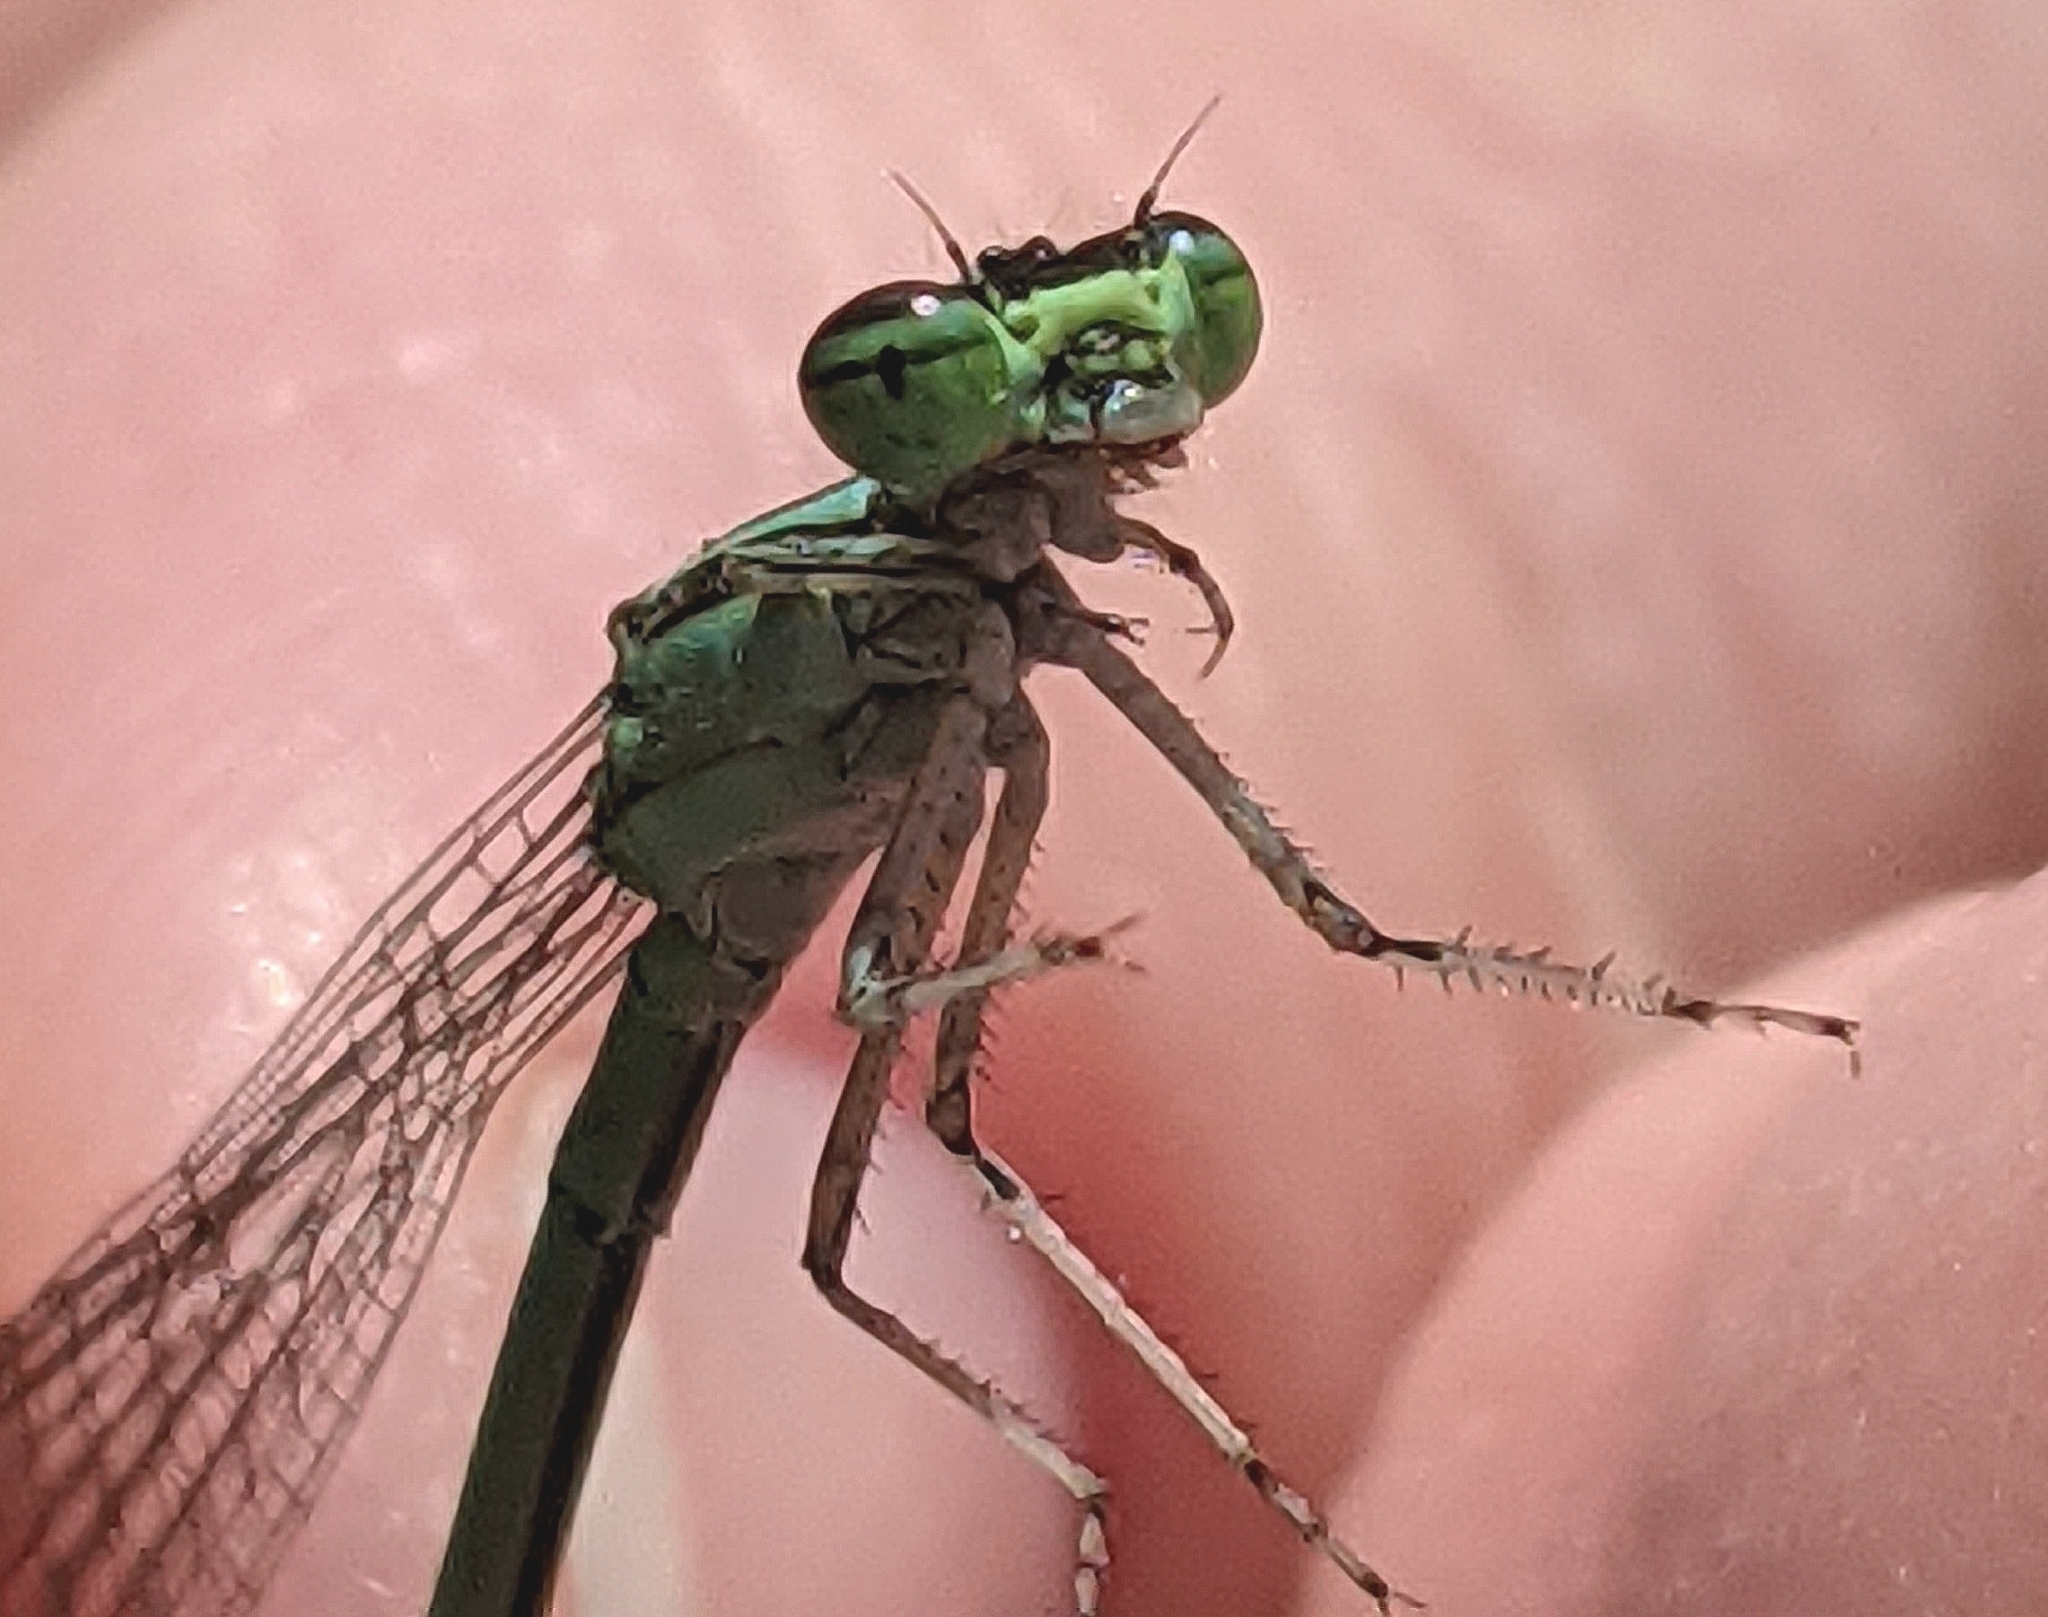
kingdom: Animalia
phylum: Arthropoda
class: Insecta
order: Odonata
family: Coenagrionidae
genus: Enallagma
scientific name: Enallagma exsulans
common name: Stream bluet
